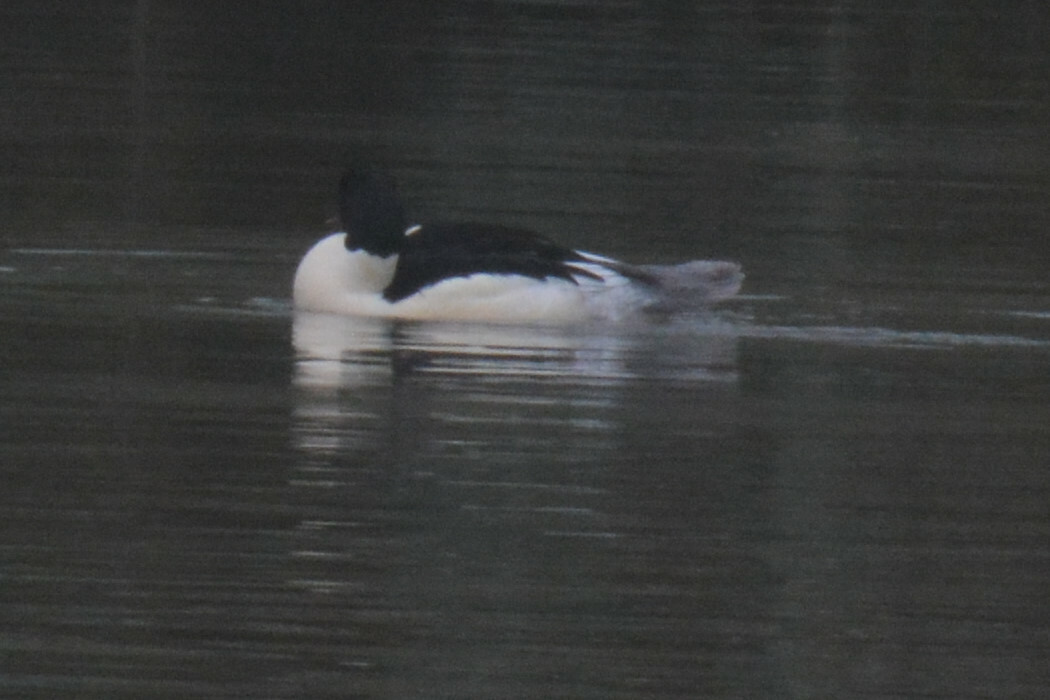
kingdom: Animalia
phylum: Chordata
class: Aves
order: Anseriformes
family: Anatidae
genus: Mergus
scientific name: Mergus merganser
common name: Common merganser
